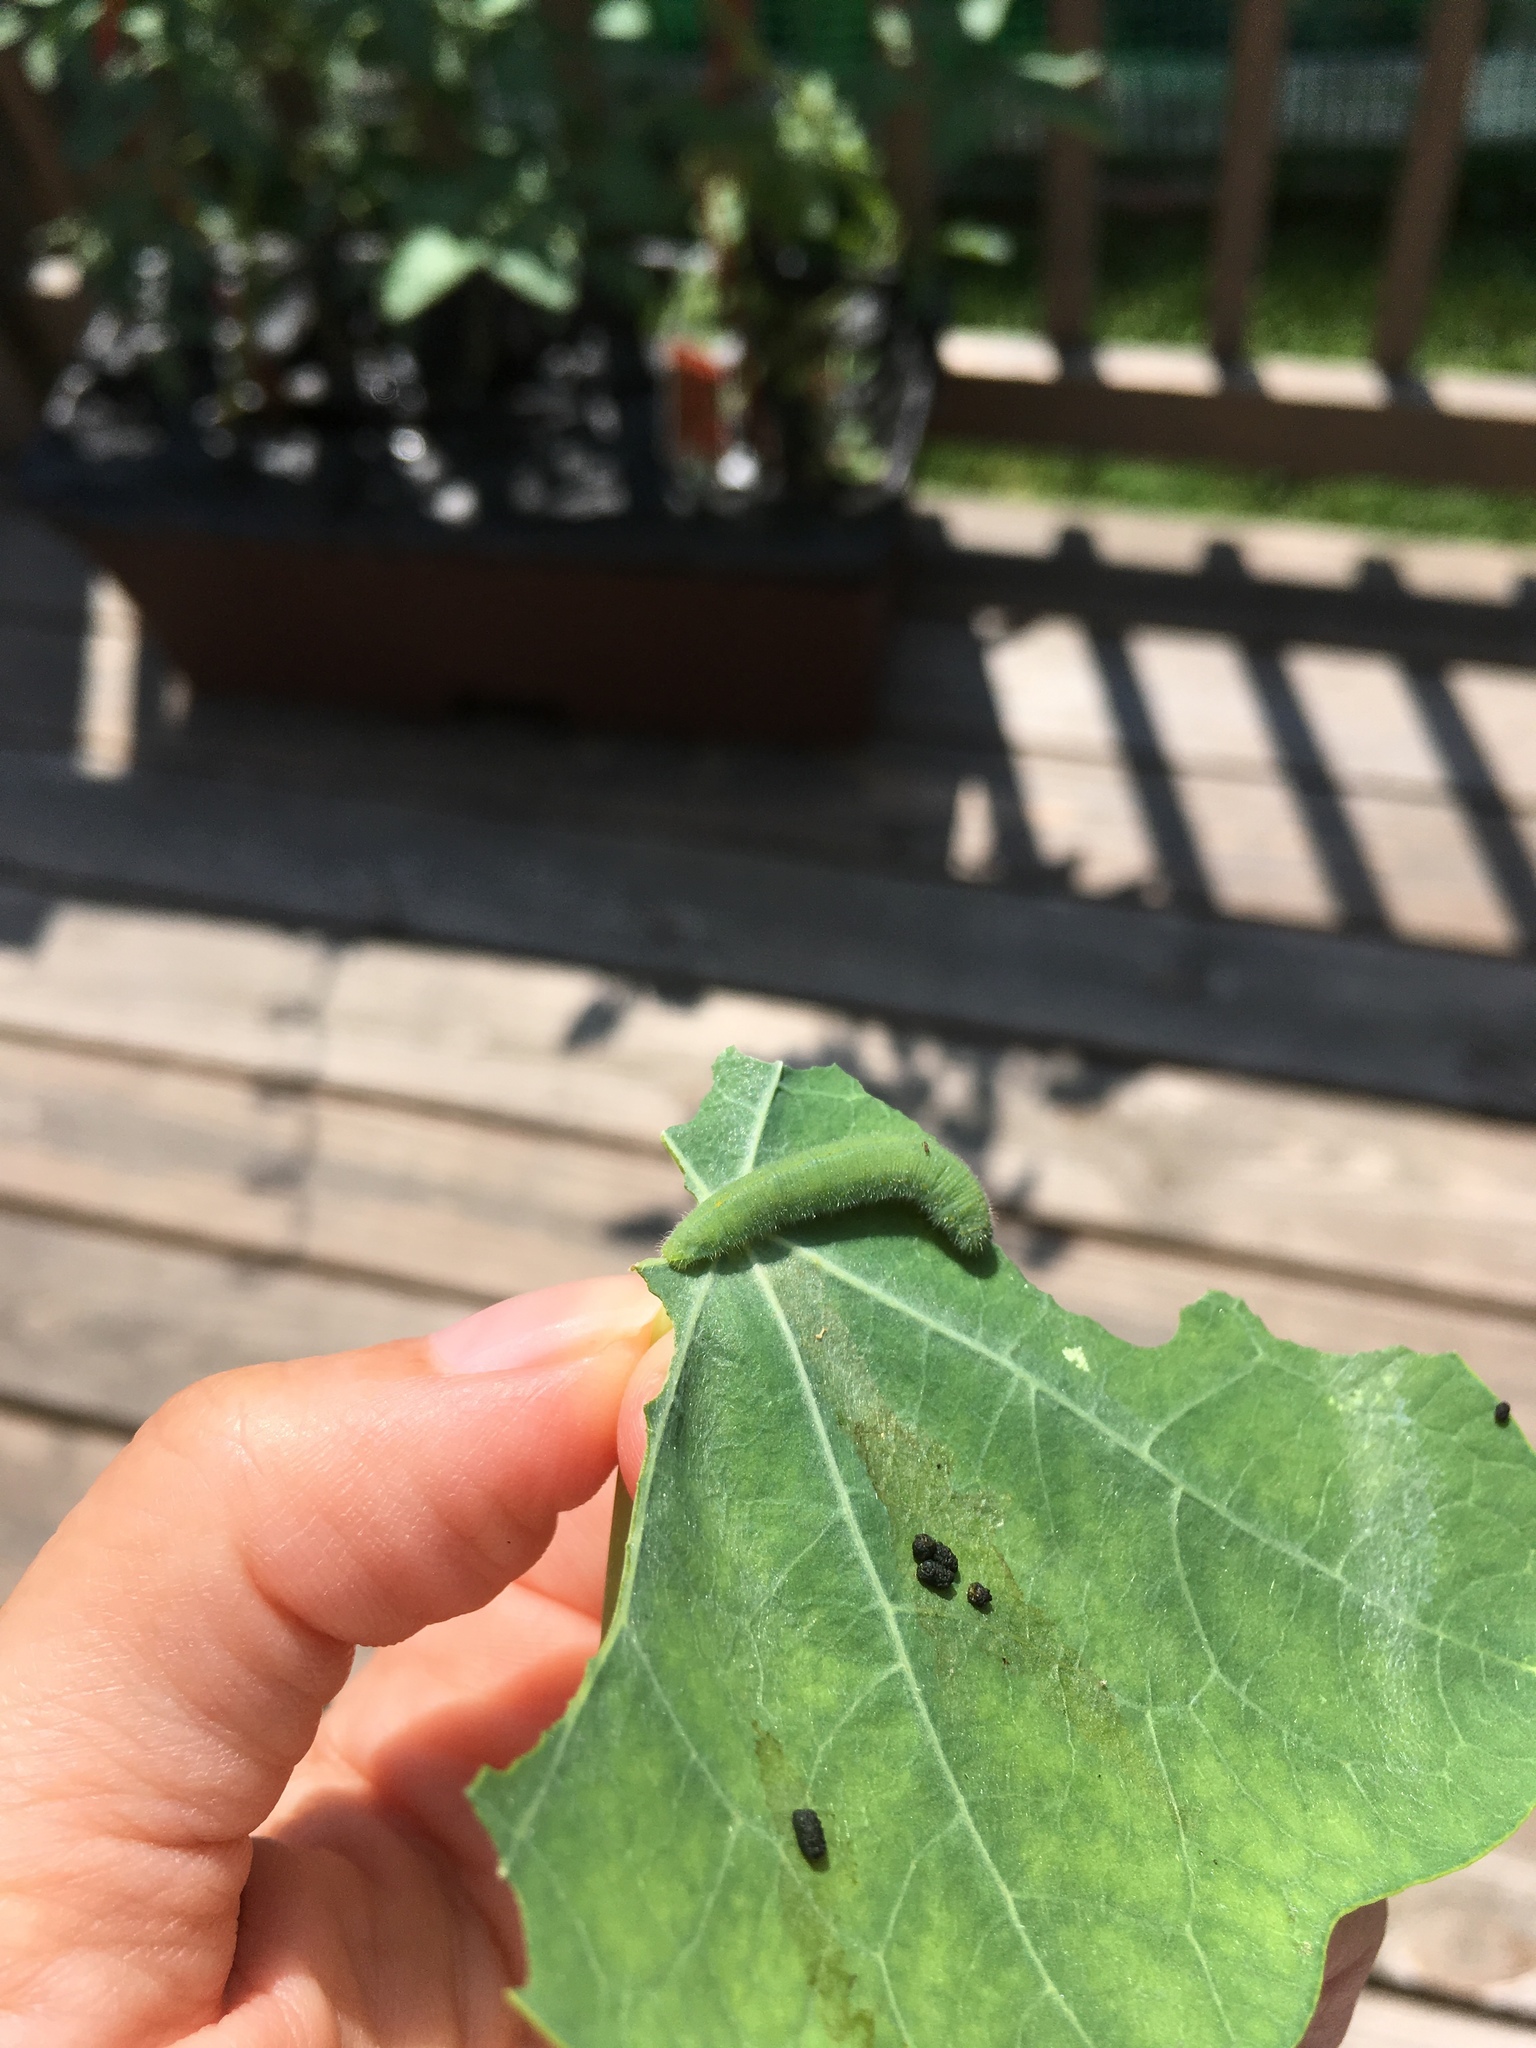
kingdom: Animalia
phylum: Arthropoda
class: Insecta
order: Lepidoptera
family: Pieridae
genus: Pieris
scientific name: Pieris rapae
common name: Small white
